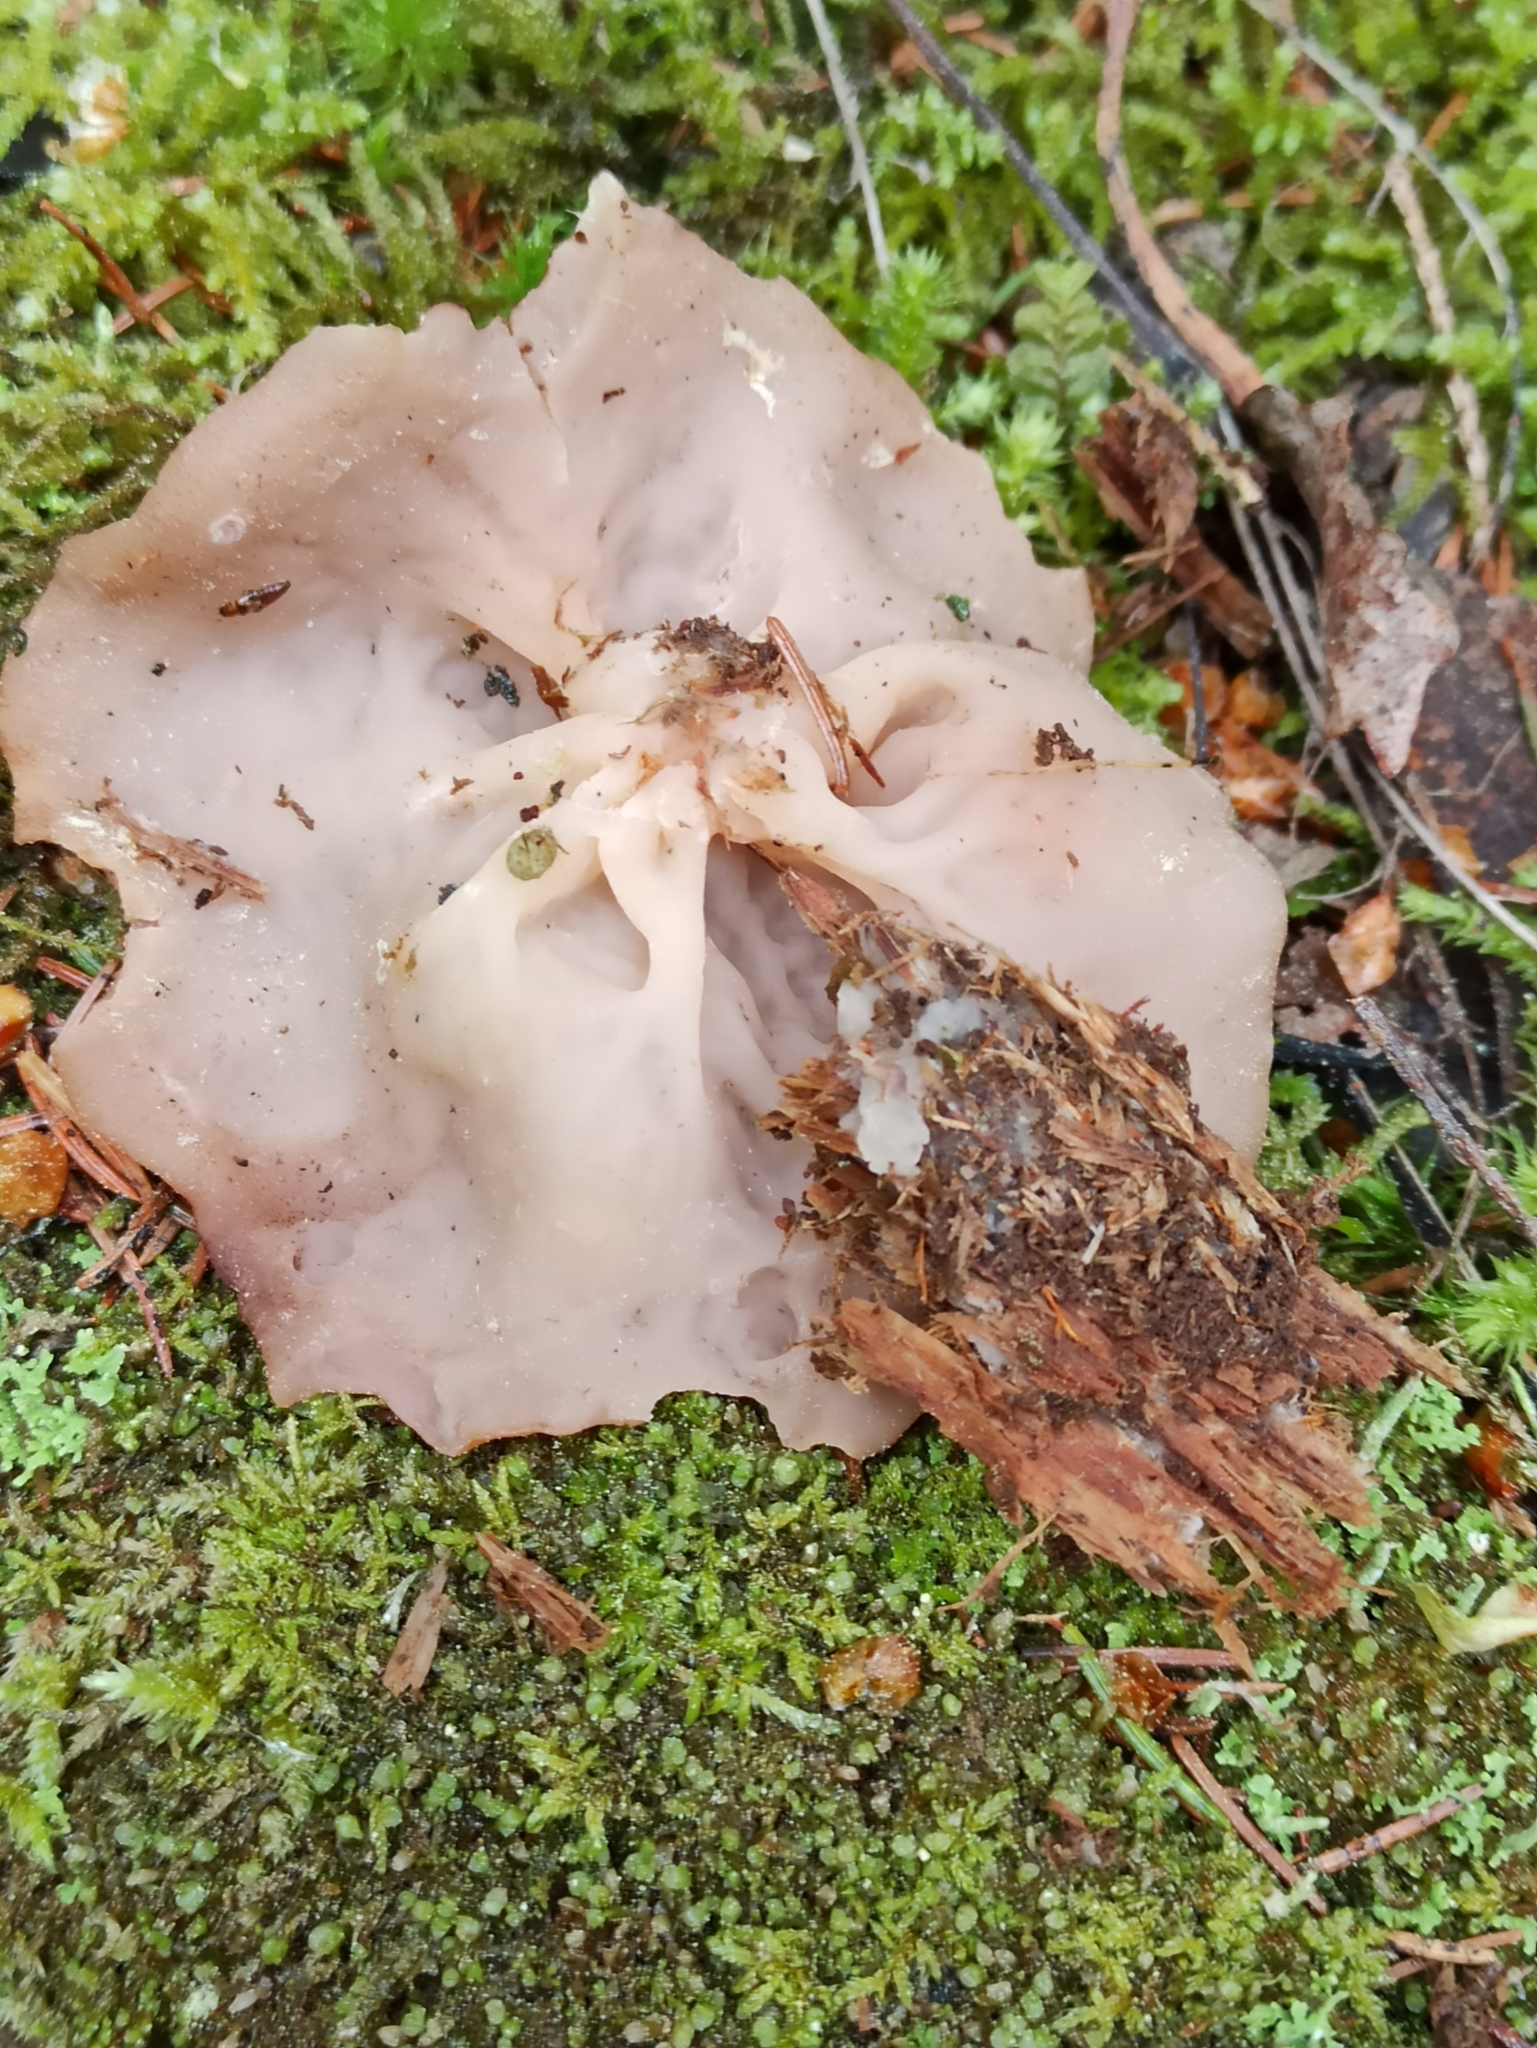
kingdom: Fungi
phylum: Ascomycota
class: Pezizomycetes
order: Pezizales
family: Discinaceae
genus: Discina
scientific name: Discina
